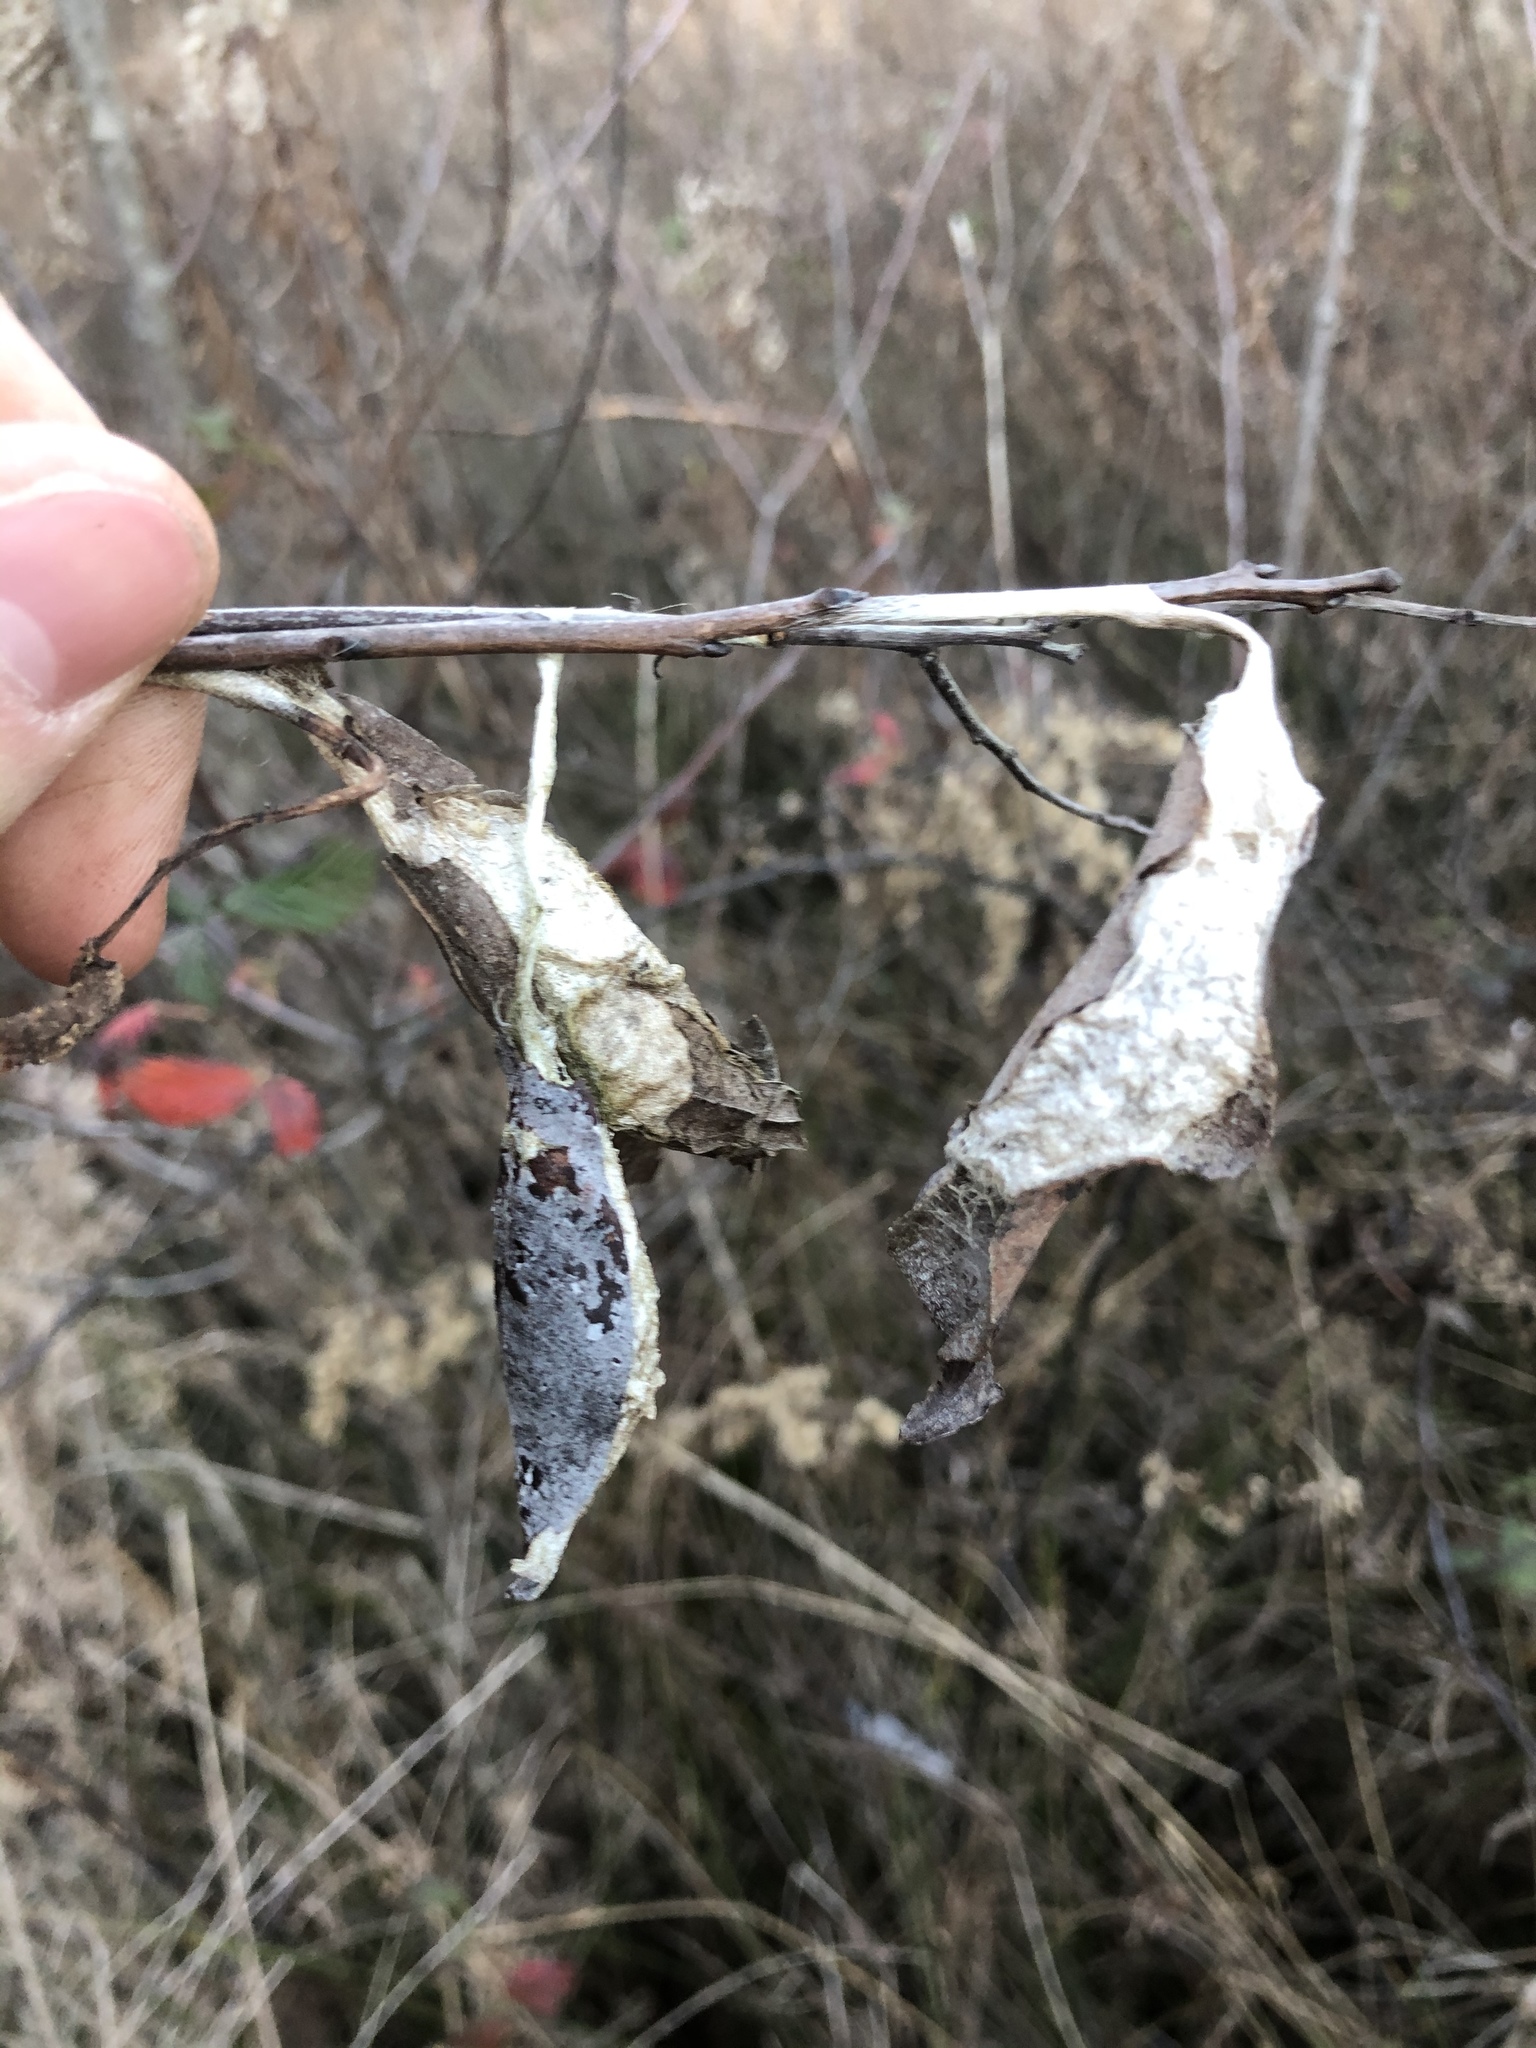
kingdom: Animalia
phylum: Arthropoda
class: Insecta
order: Lepidoptera
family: Saturniidae
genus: Callosamia
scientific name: Callosamia promethea
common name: Promethea silkmoth
